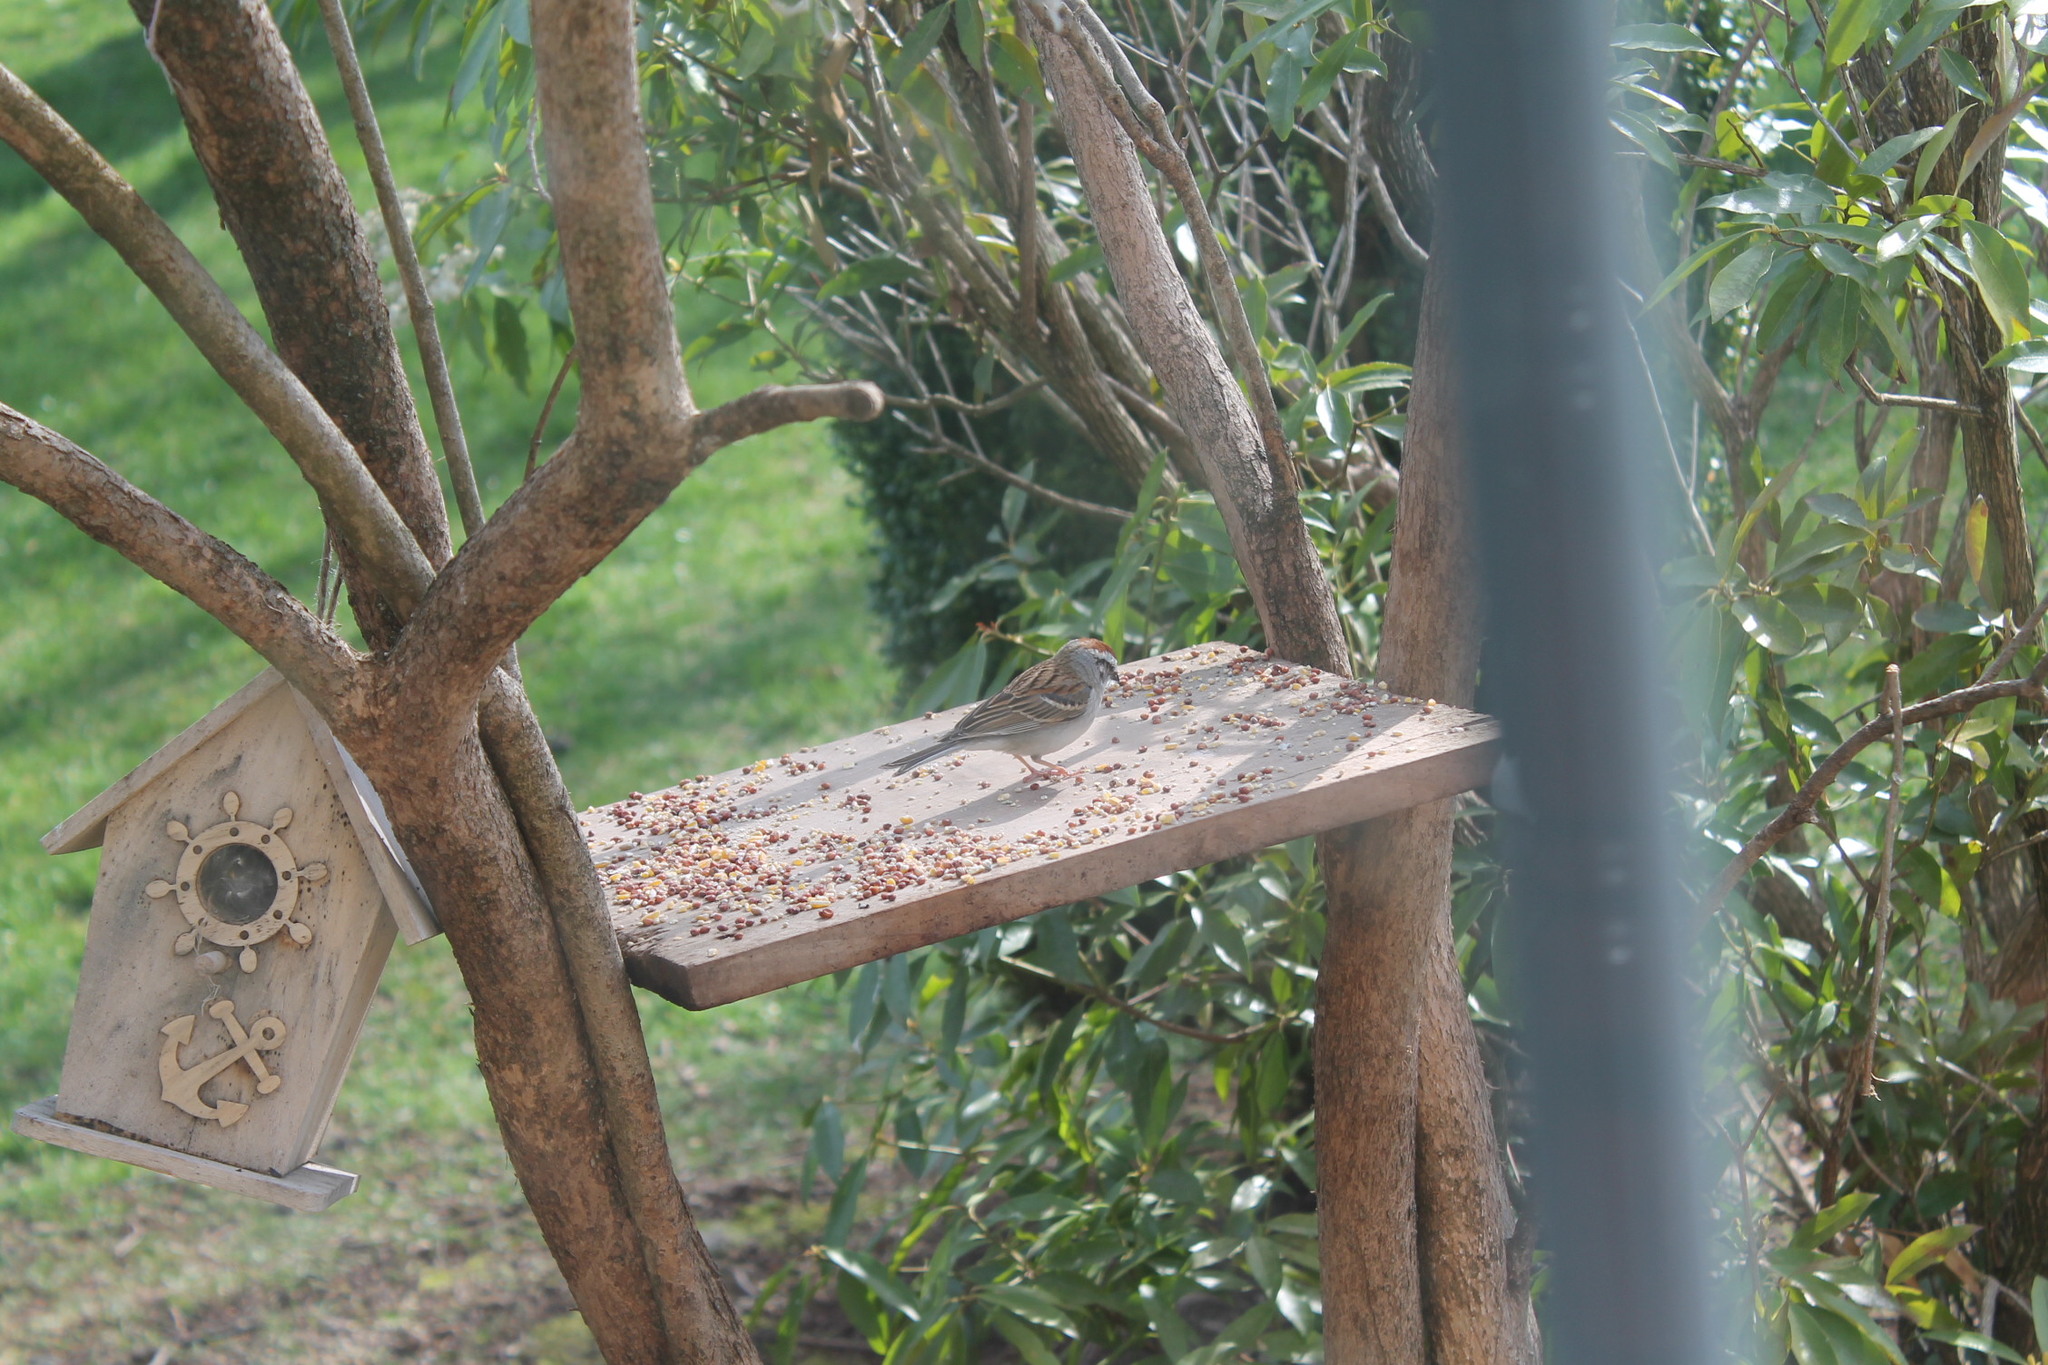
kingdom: Animalia
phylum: Chordata
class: Aves
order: Passeriformes
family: Passerellidae
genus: Spizella
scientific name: Spizella passerina
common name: Chipping sparrow
